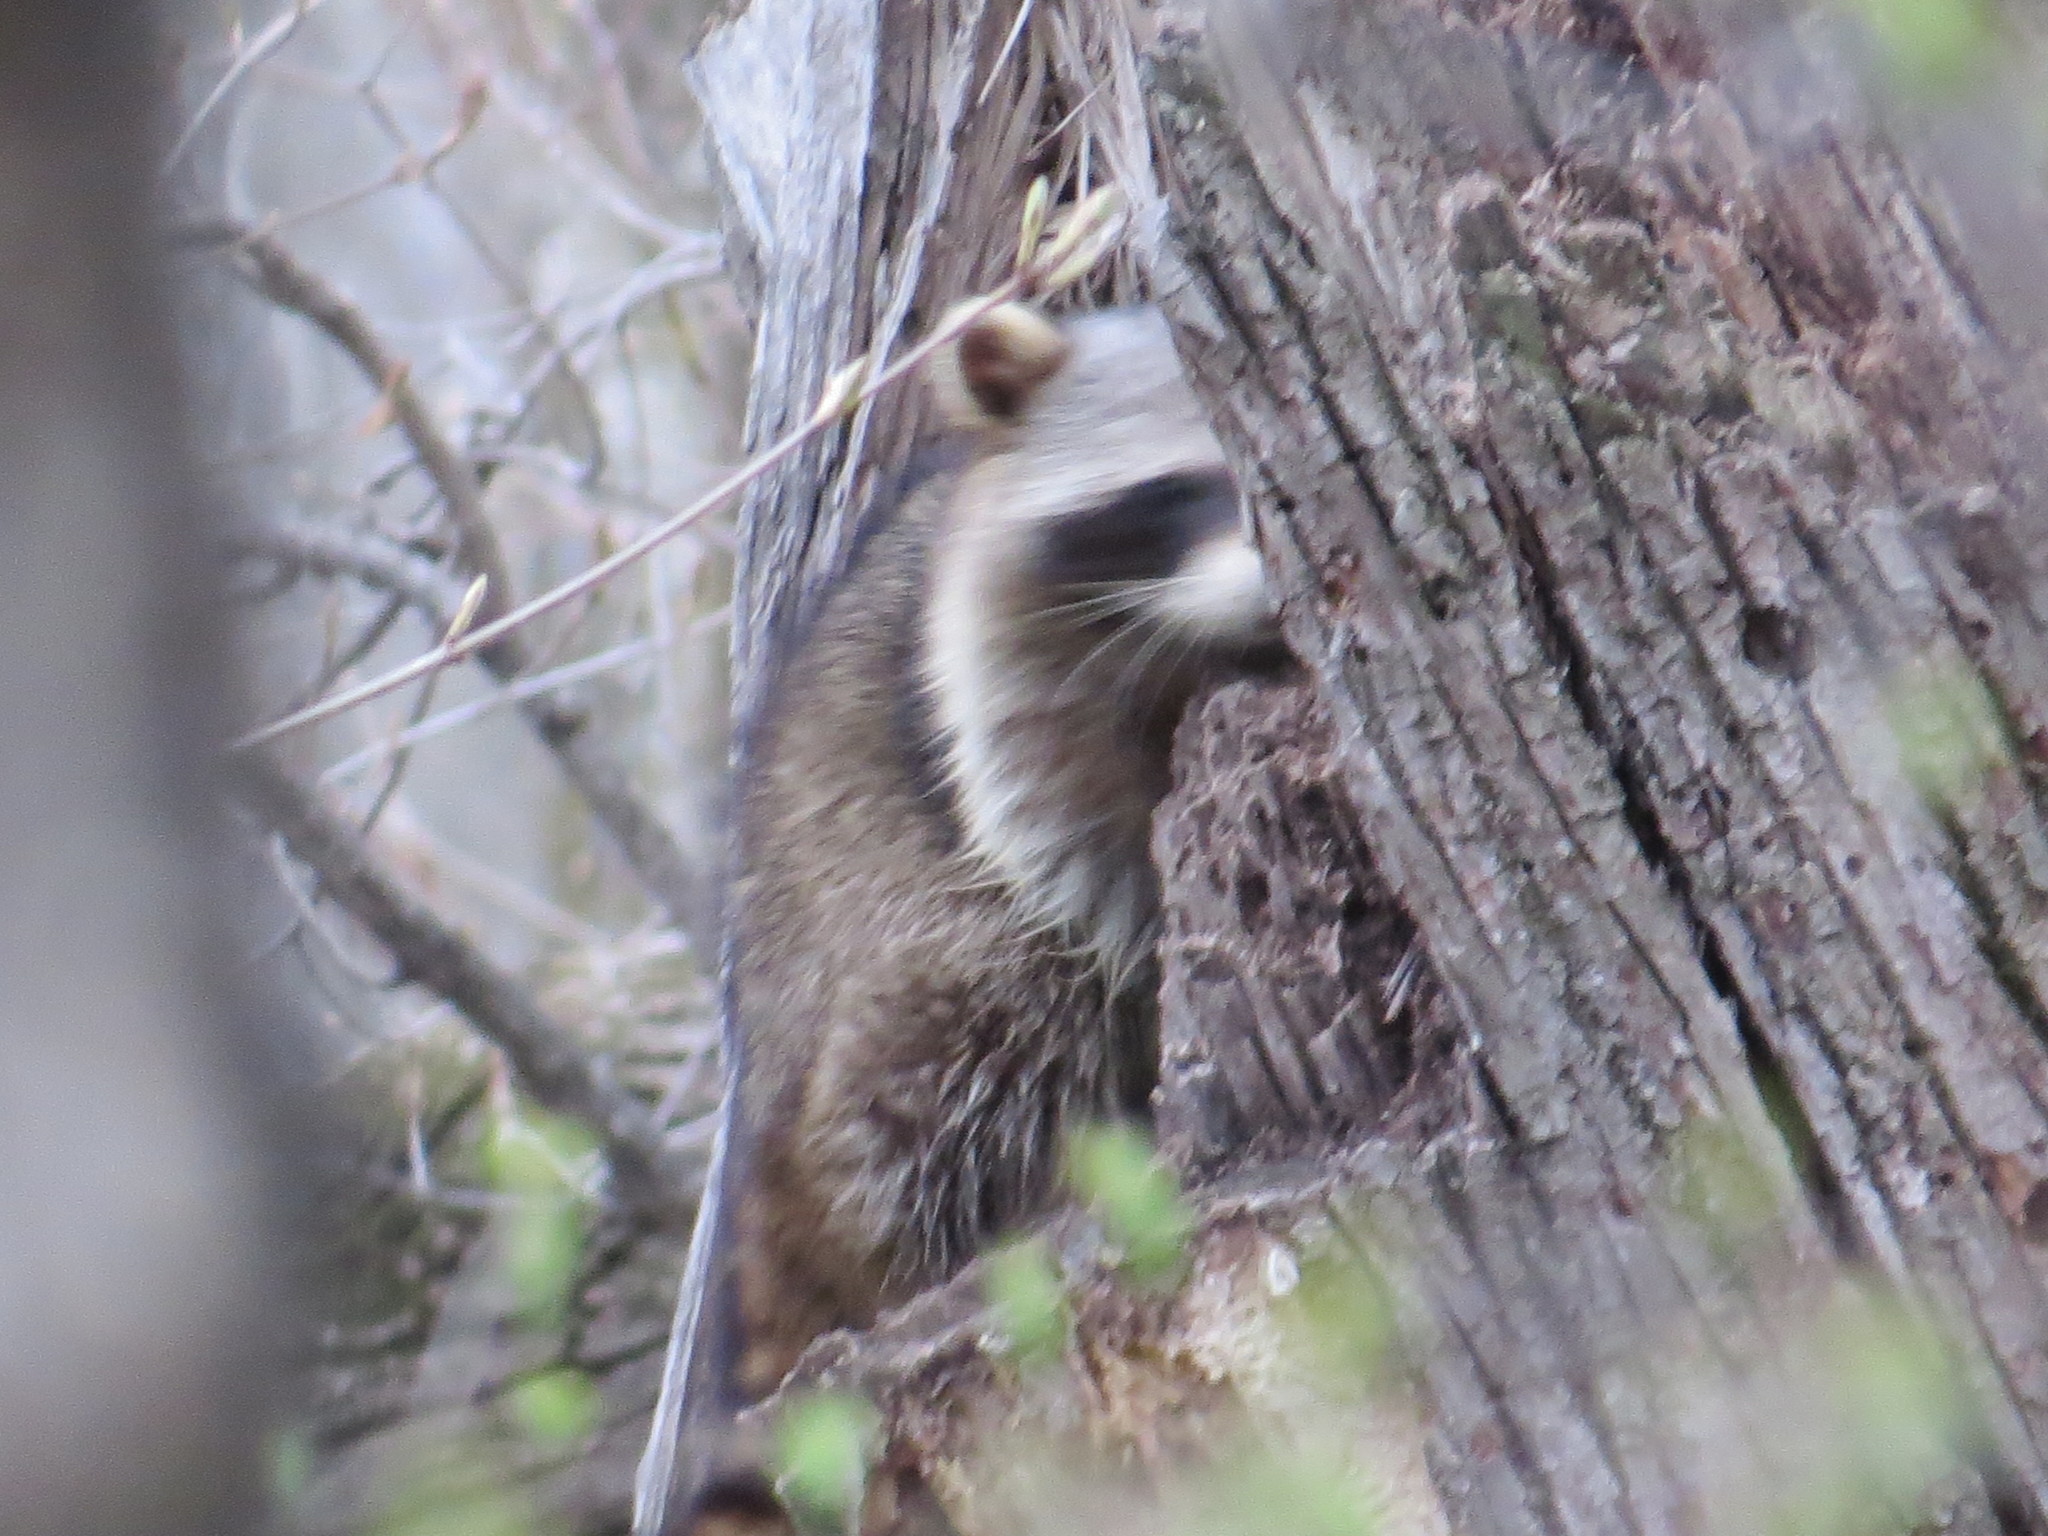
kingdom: Animalia
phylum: Chordata
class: Mammalia
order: Carnivora
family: Procyonidae
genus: Procyon
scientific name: Procyon lotor
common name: Raccoon
